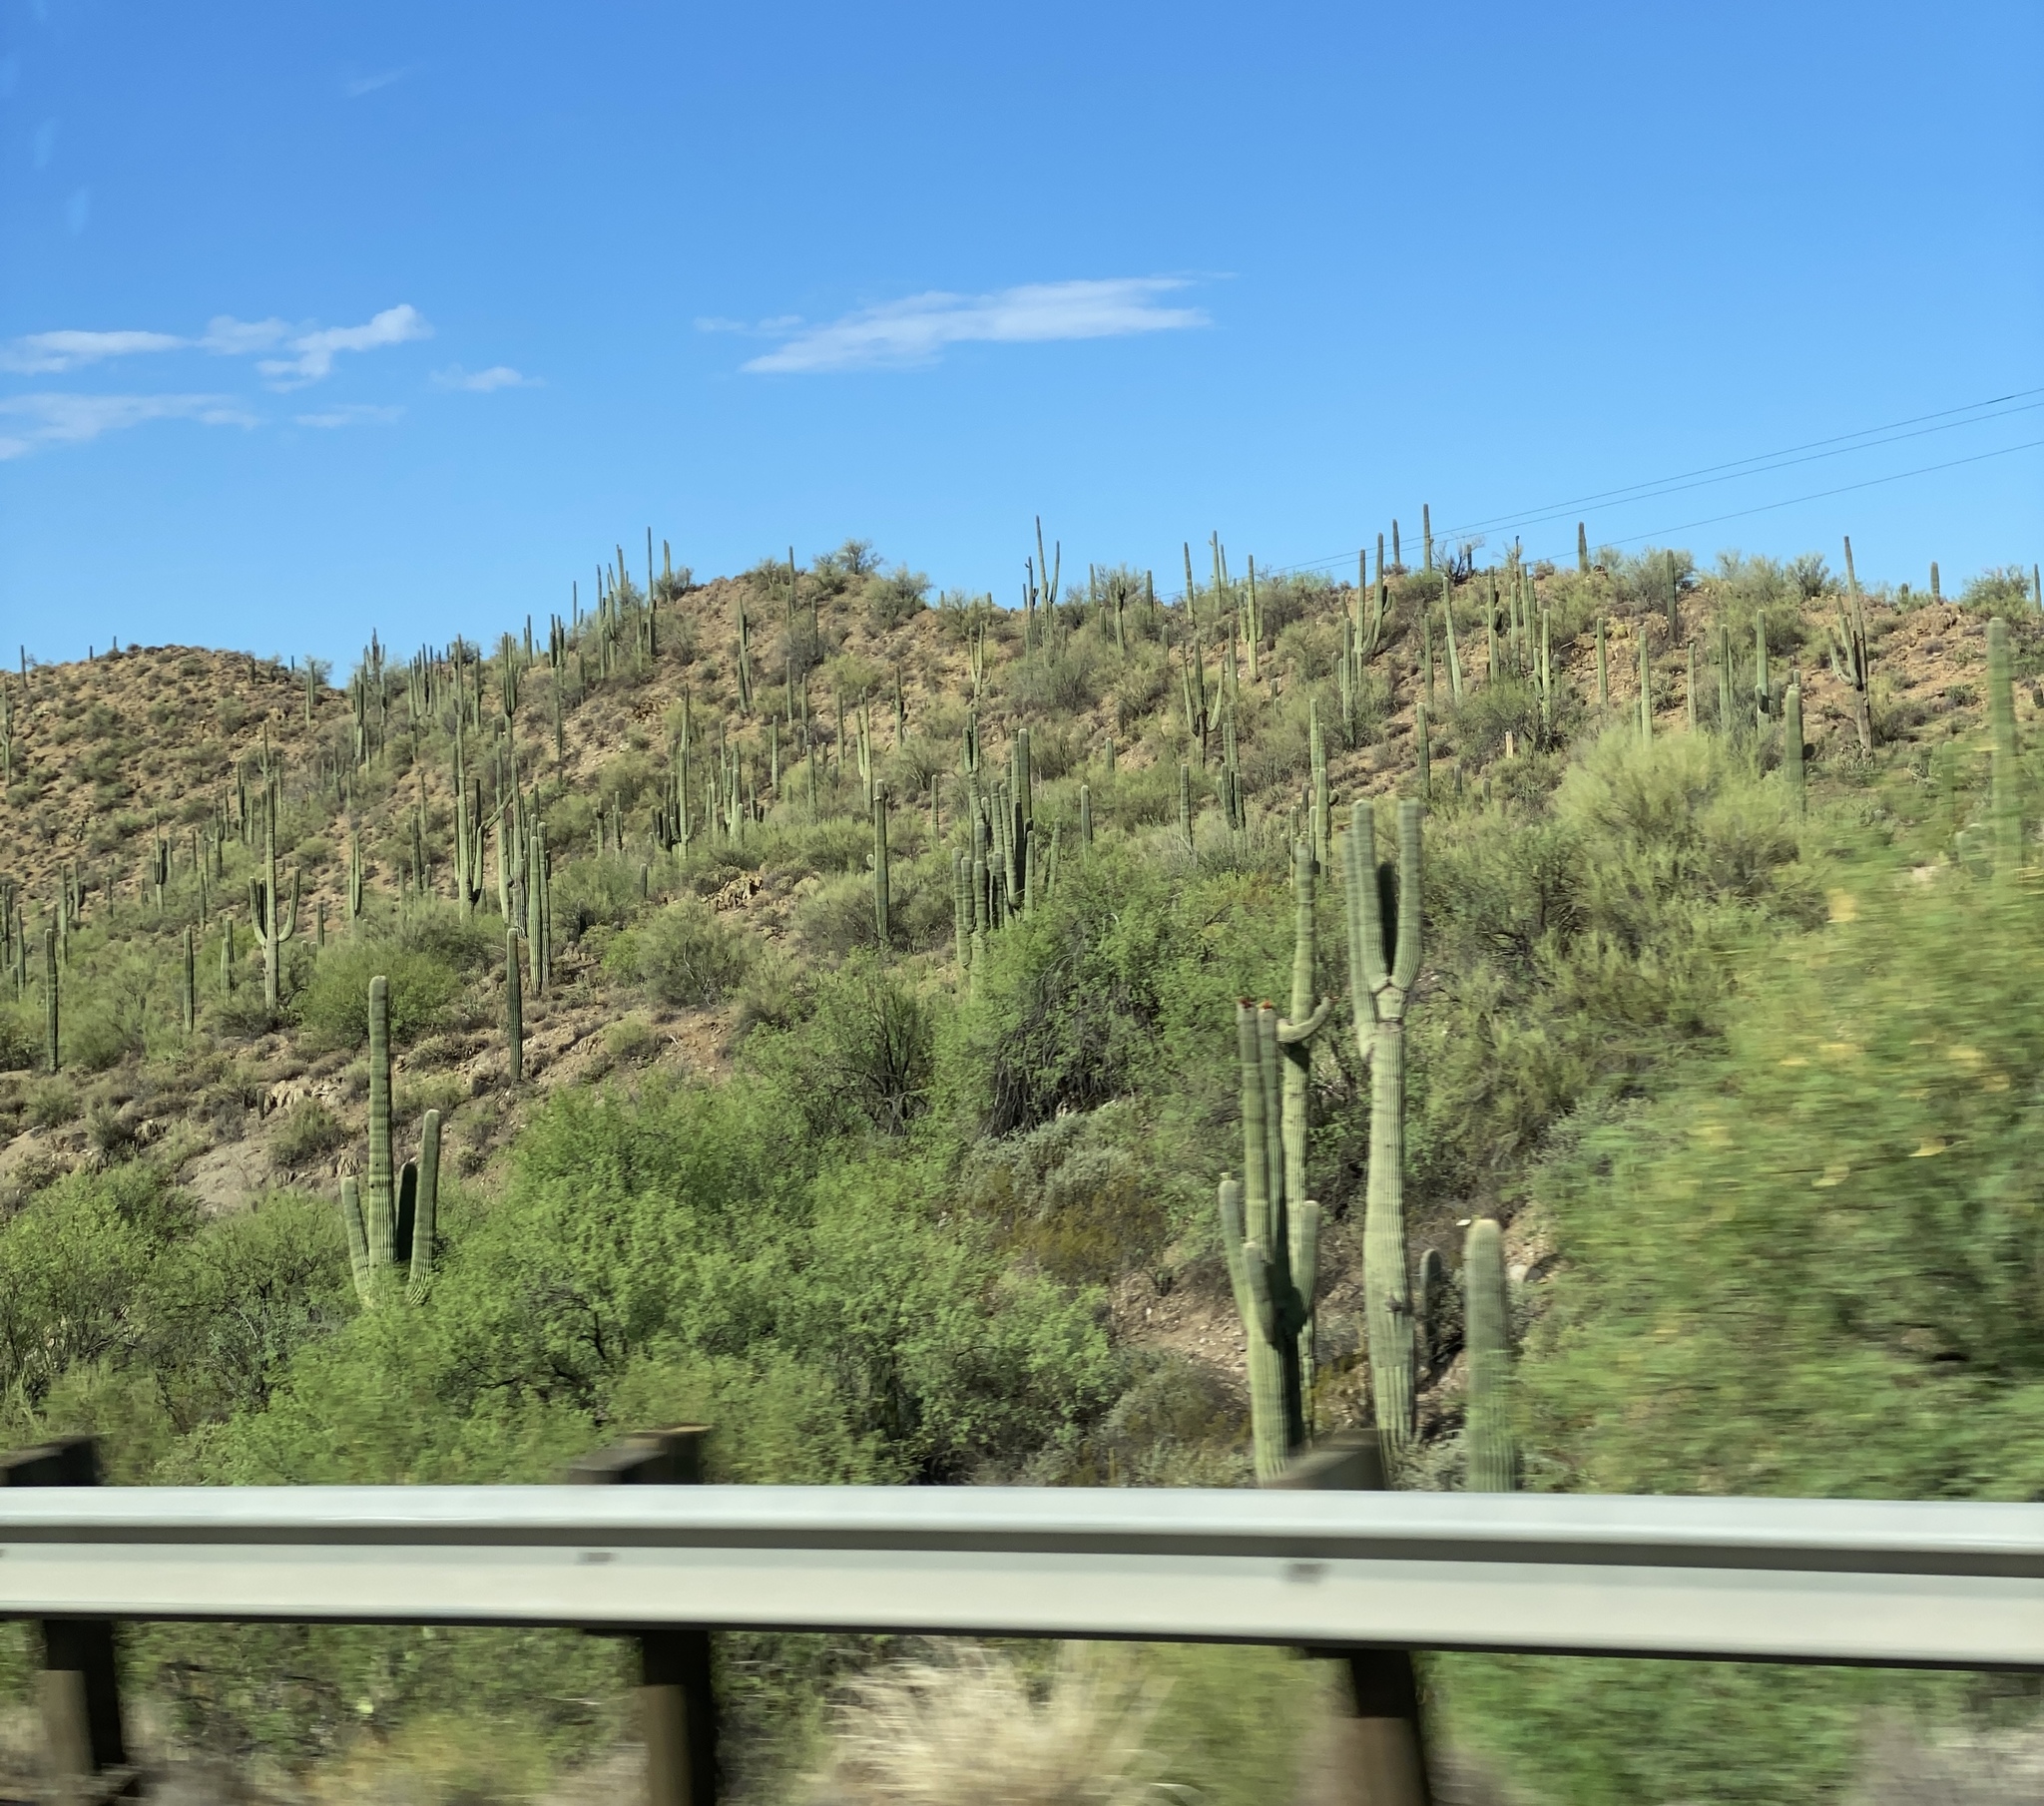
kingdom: Plantae
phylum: Tracheophyta
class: Magnoliopsida
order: Caryophyllales
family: Cactaceae
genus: Carnegiea
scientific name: Carnegiea gigantea
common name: Saguaro
